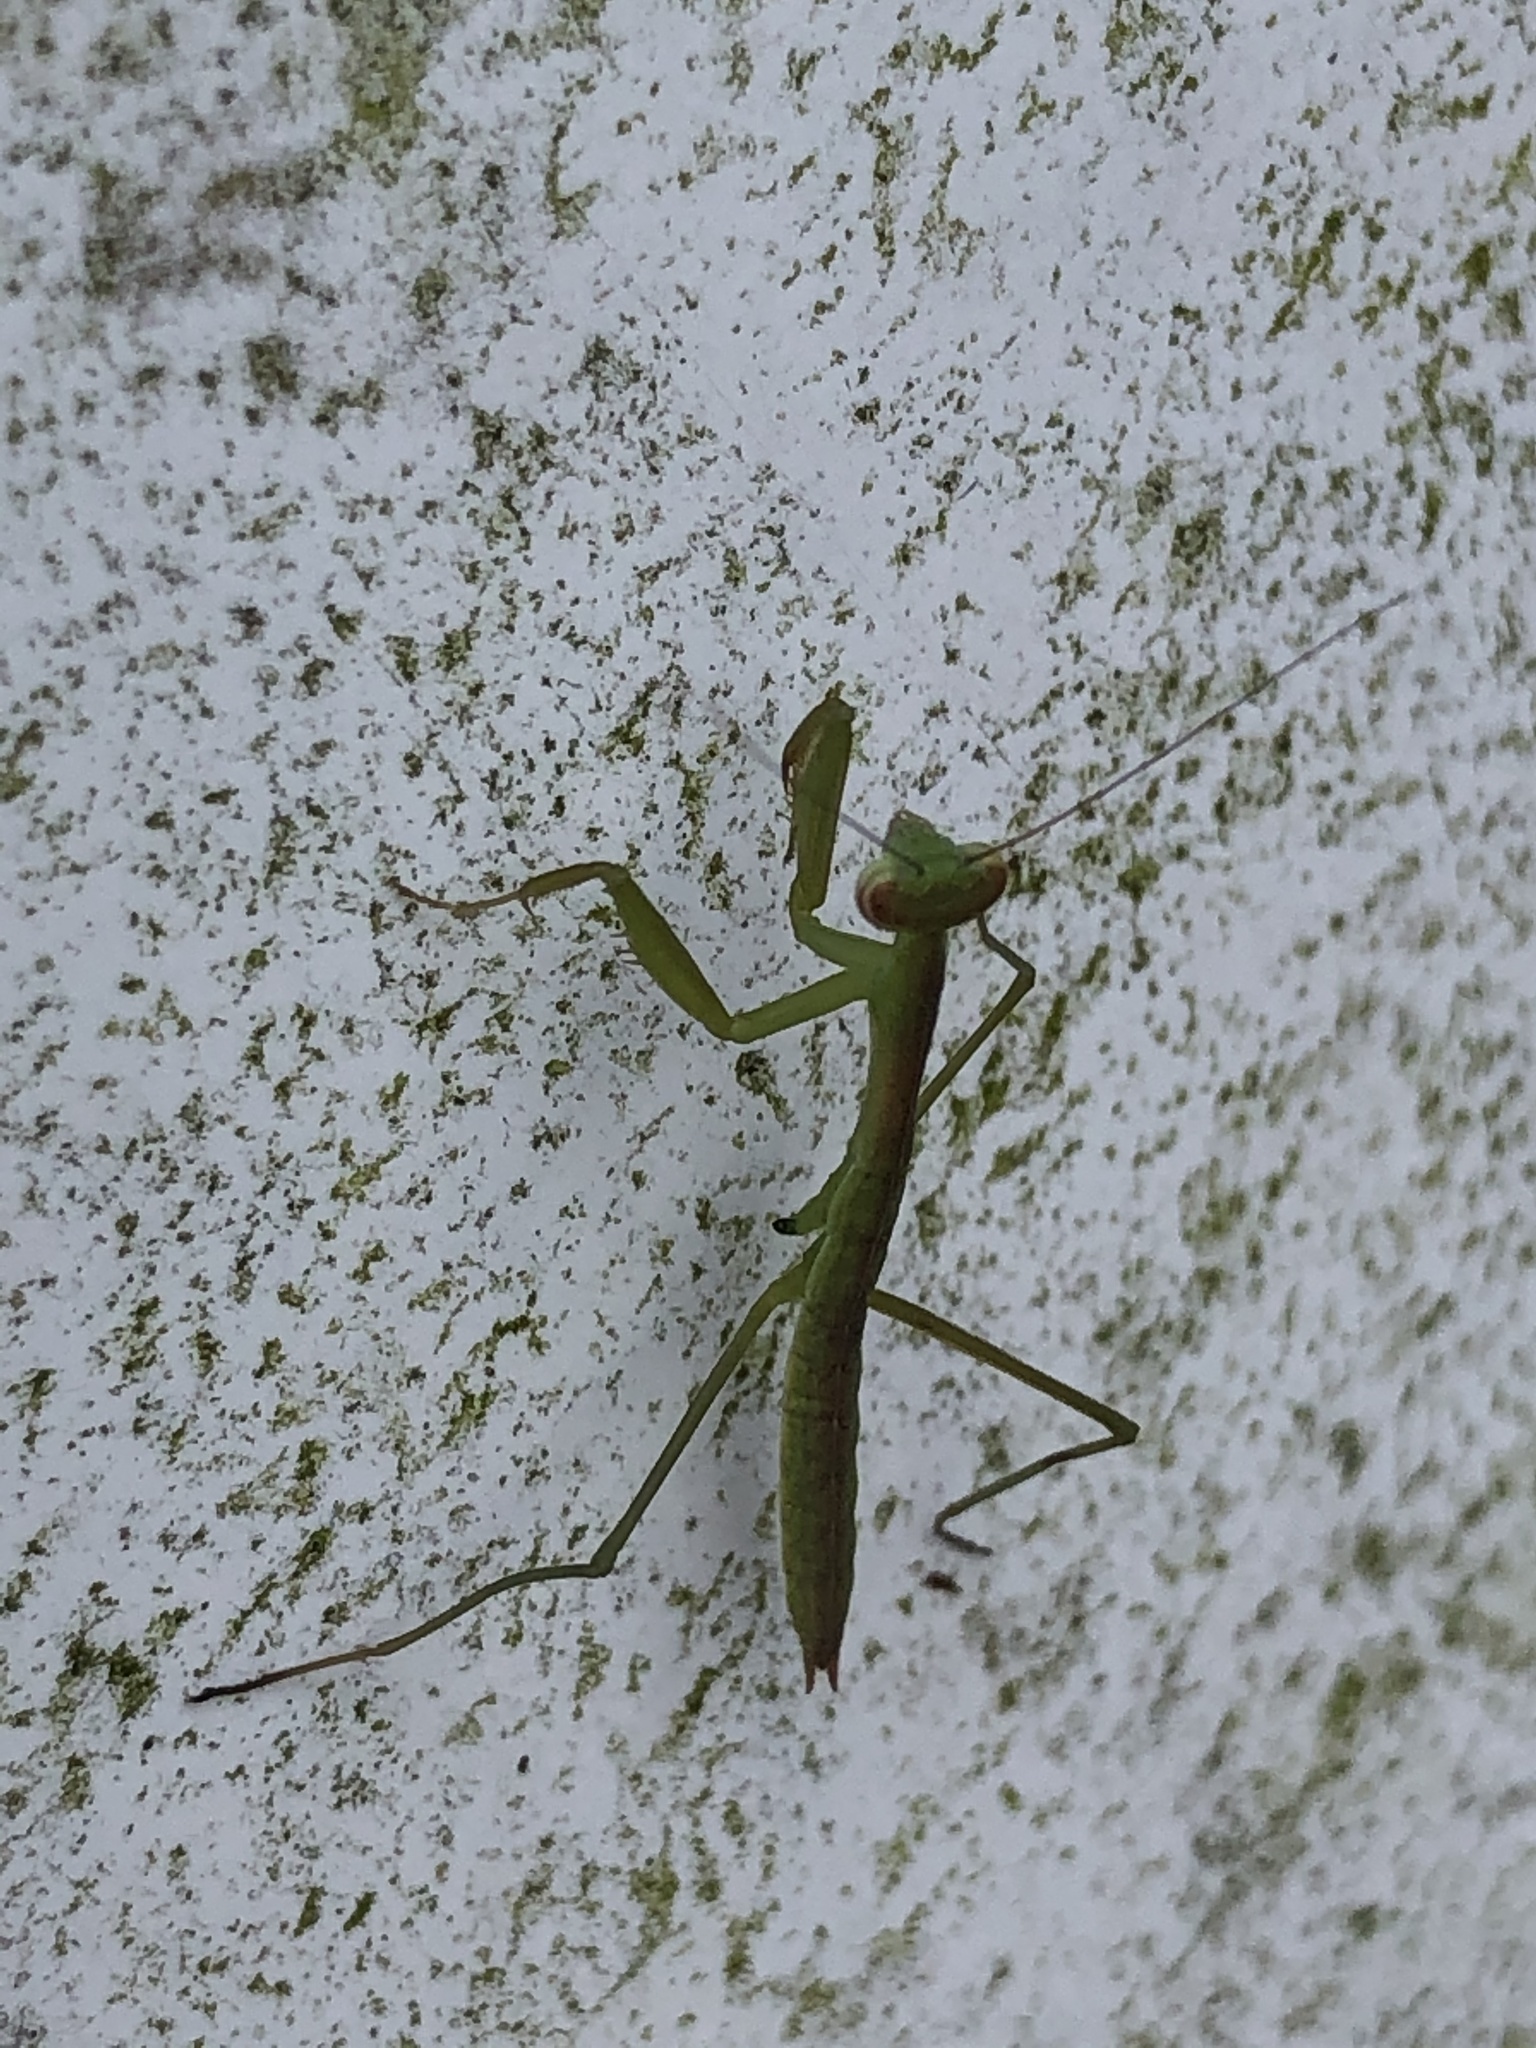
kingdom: Animalia
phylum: Arthropoda
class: Insecta
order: Mantodea
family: Mantidae
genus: Tenodera
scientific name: Tenodera angustipennis
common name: Asian mantis
